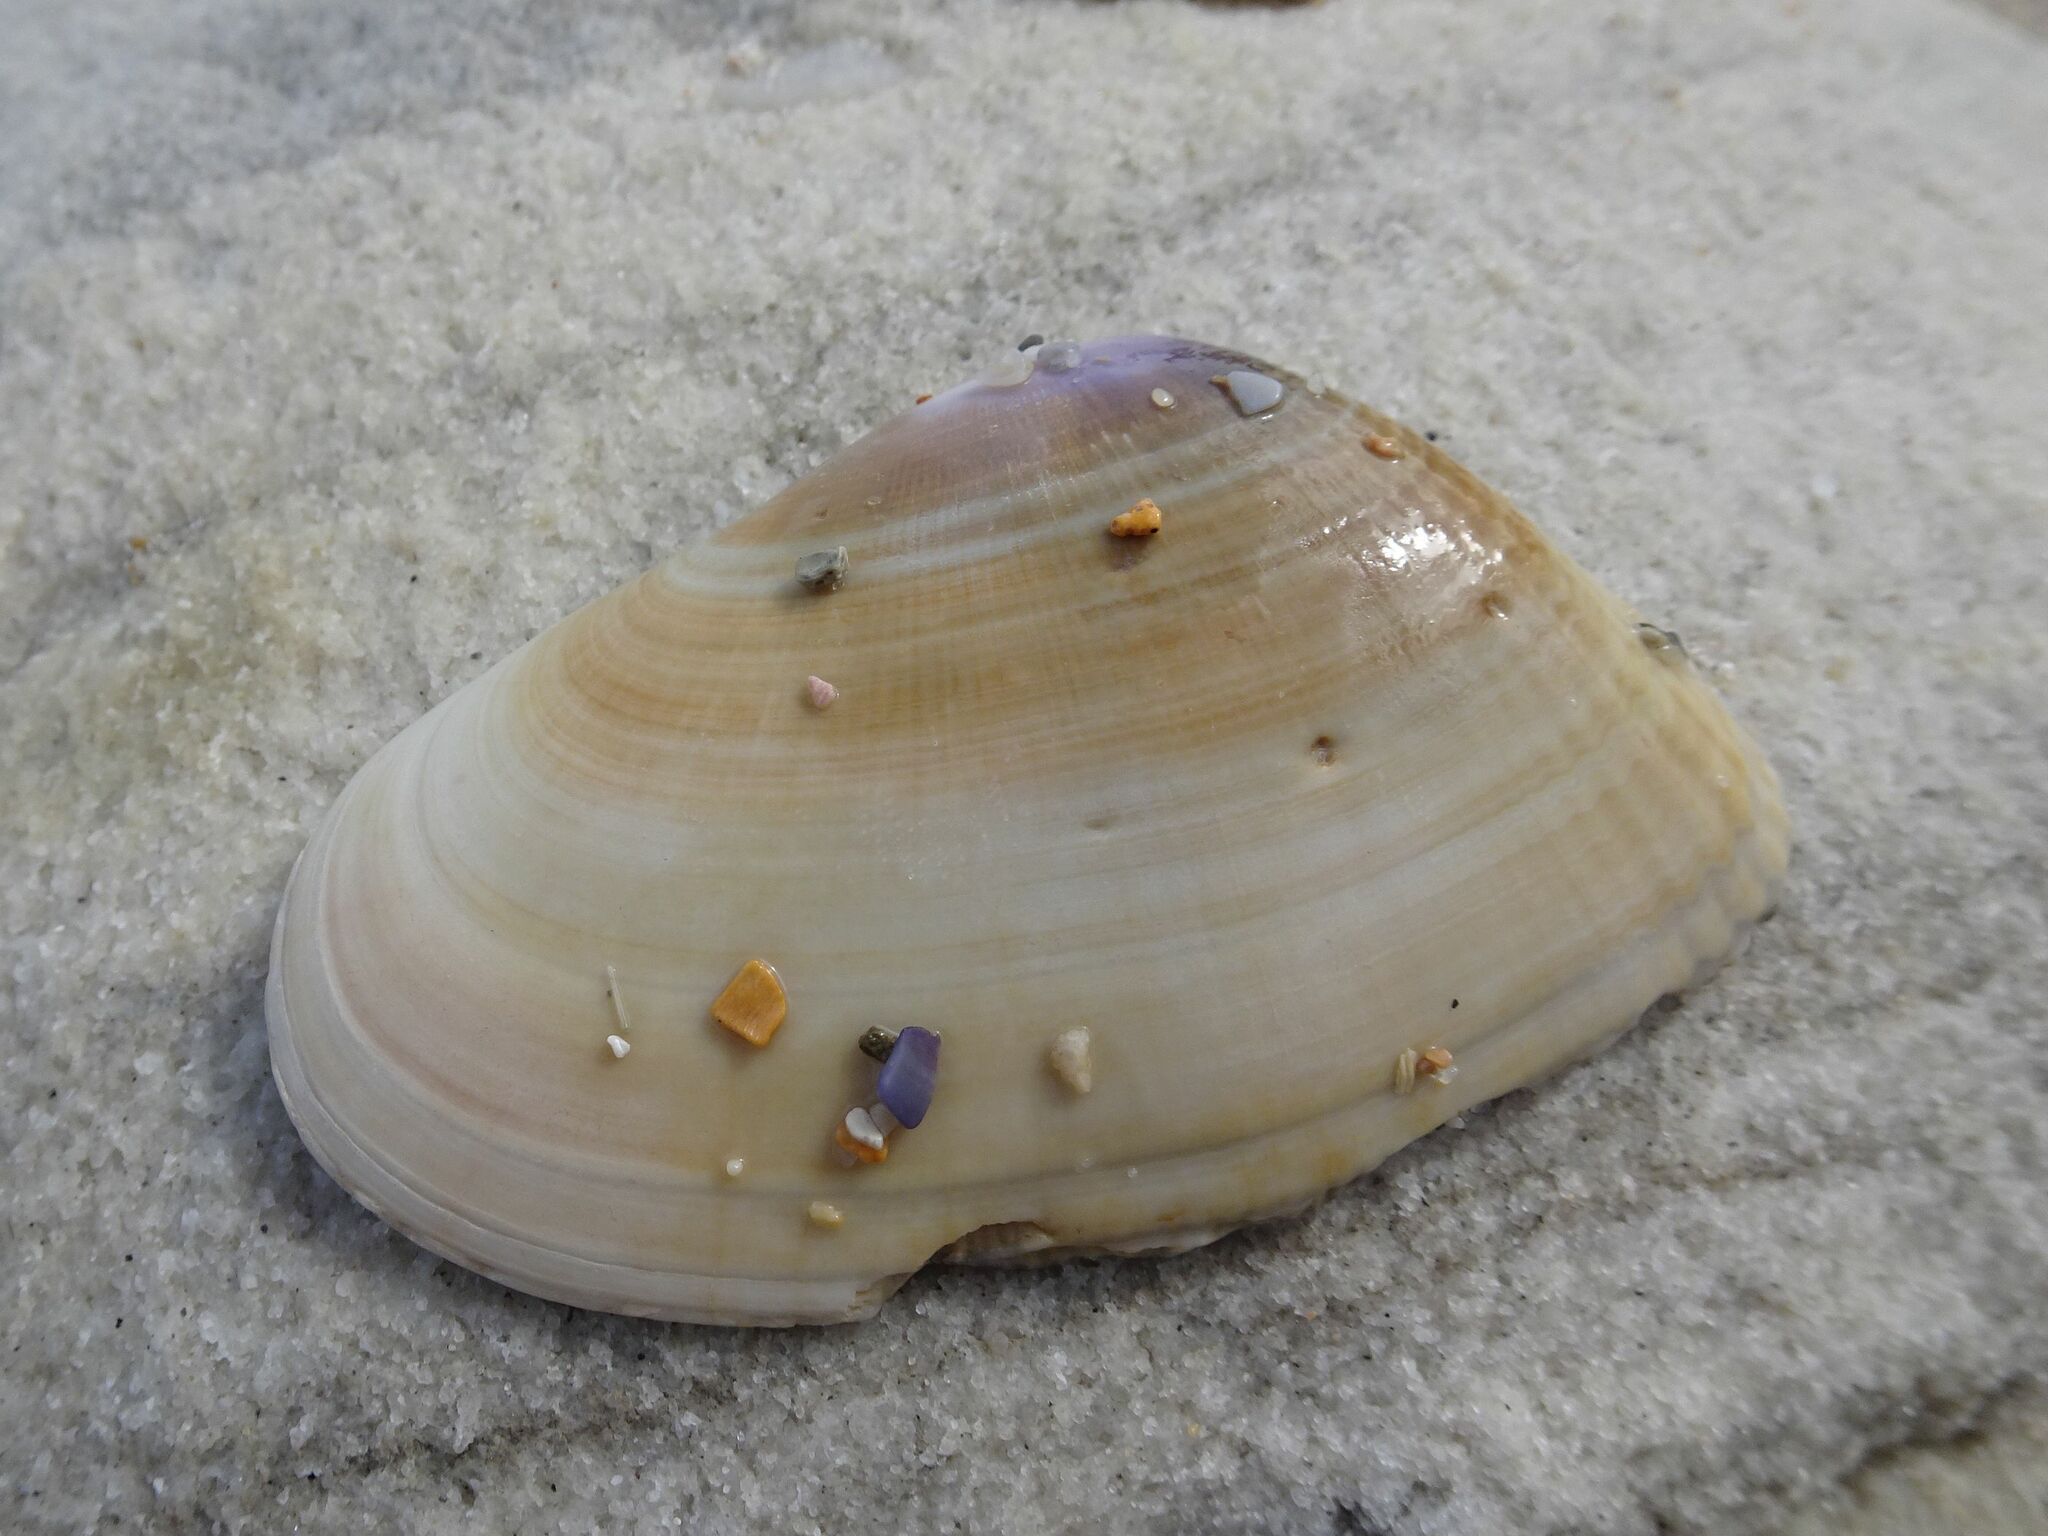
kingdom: Animalia
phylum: Mollusca
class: Bivalvia
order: Cardiida
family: Donacidae
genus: Donax
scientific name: Donax serra
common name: Giant south african wedge clam
